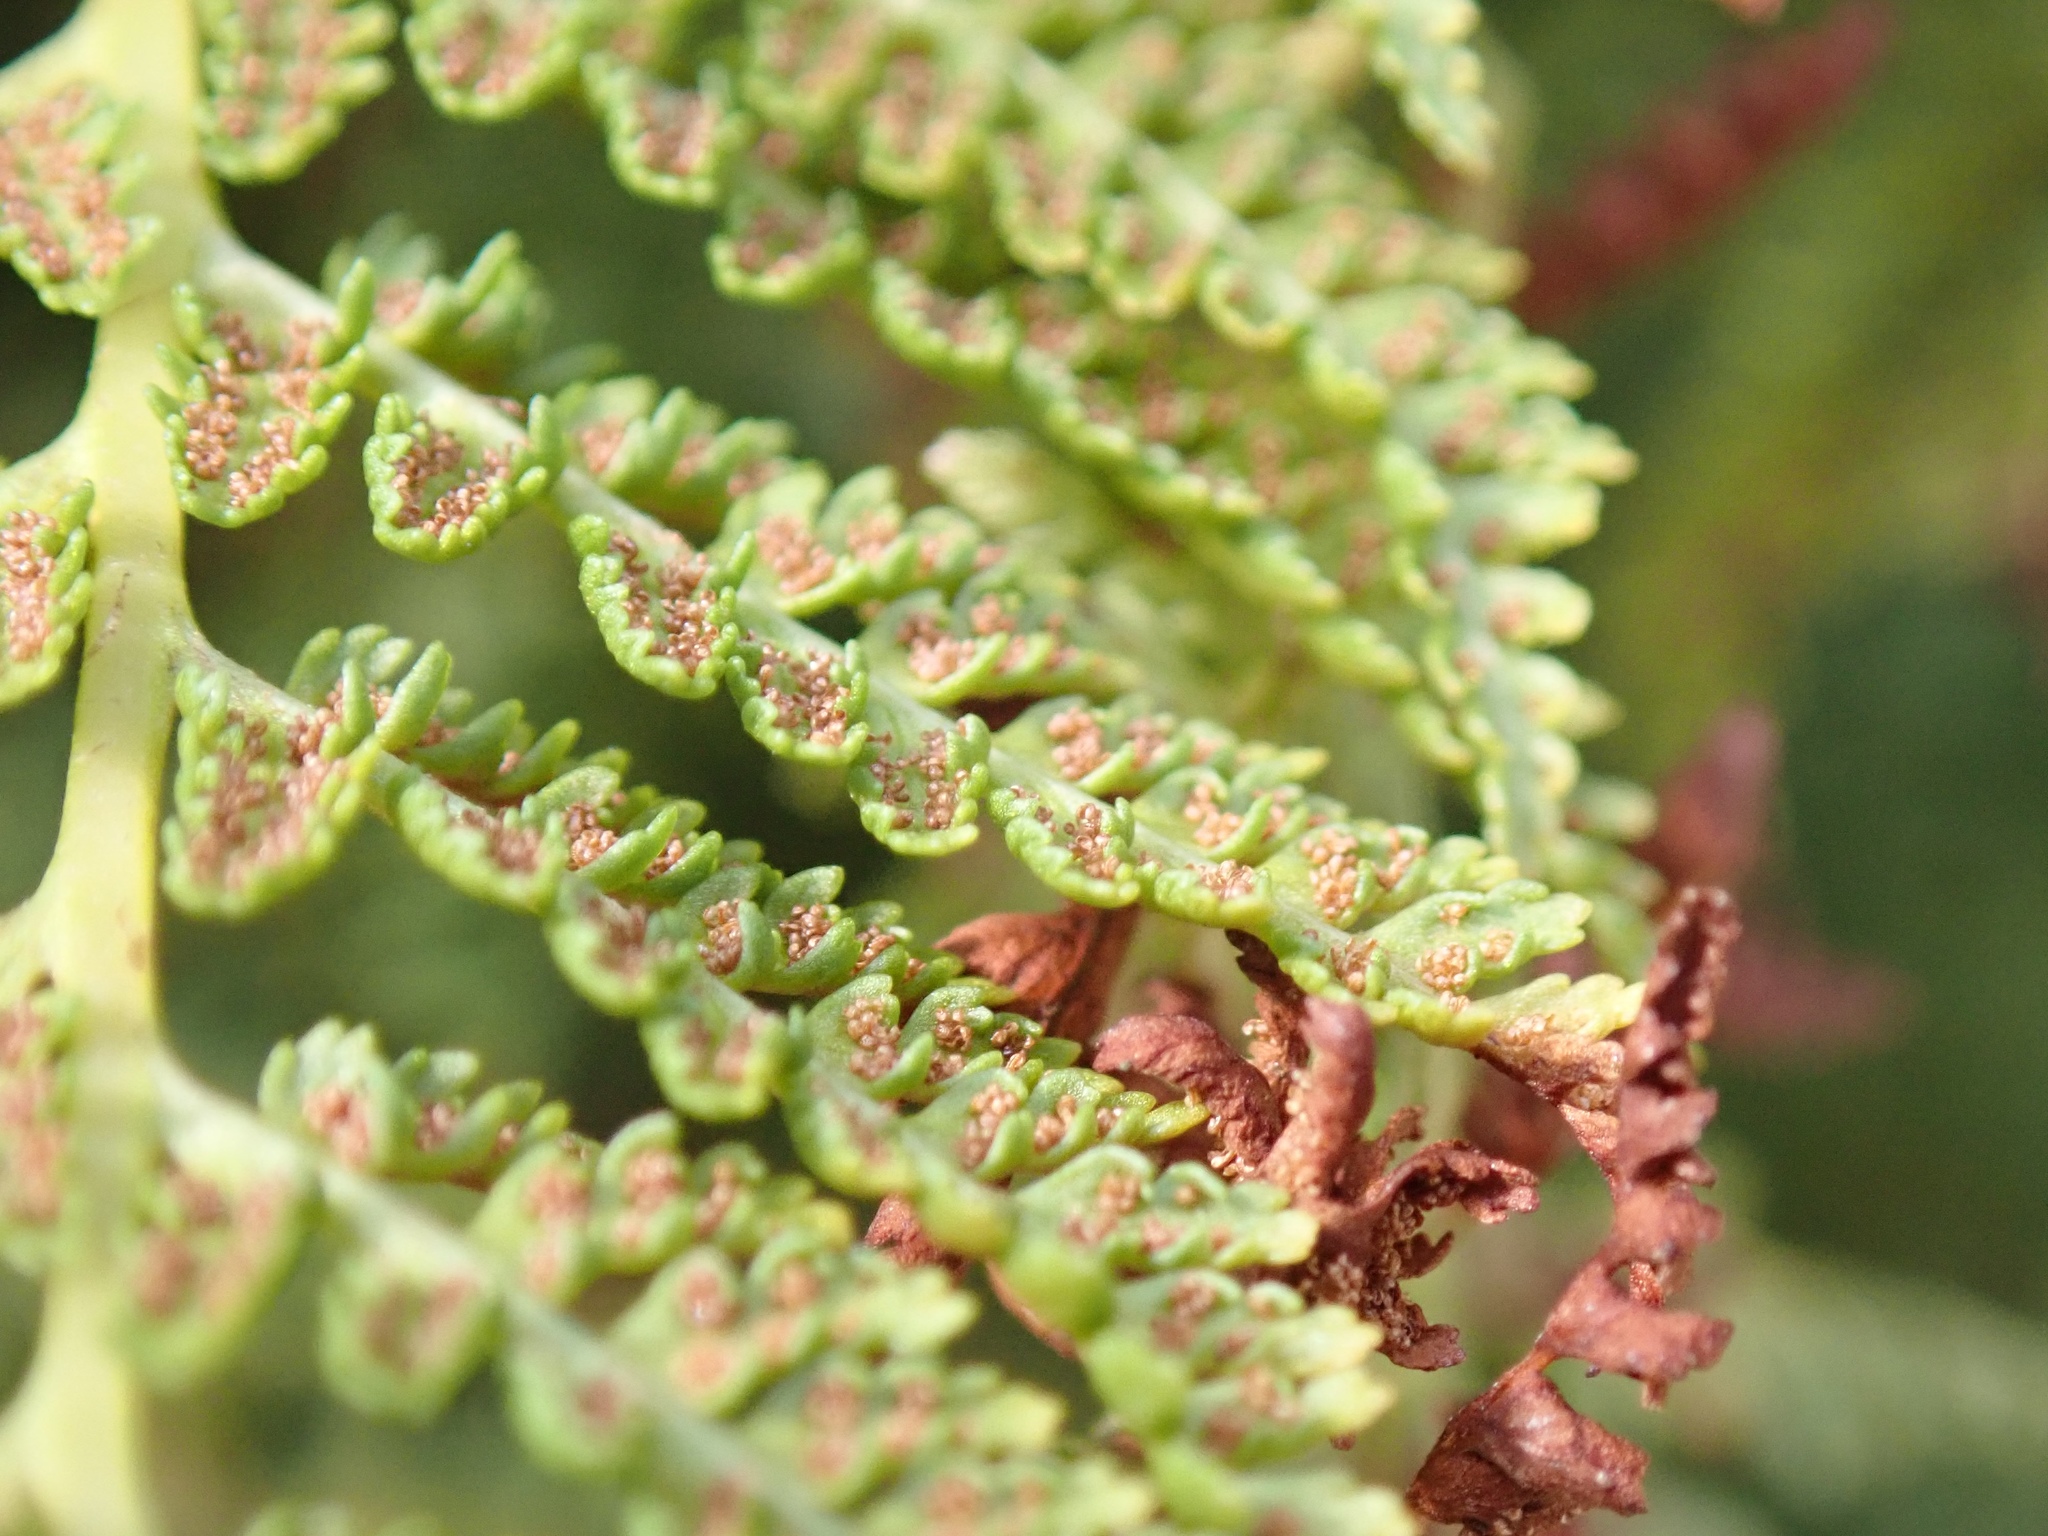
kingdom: Plantae
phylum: Tracheophyta
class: Polypodiopsida
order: Polypodiales
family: Athyriaceae
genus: Athyrium
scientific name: Athyrium americanum
